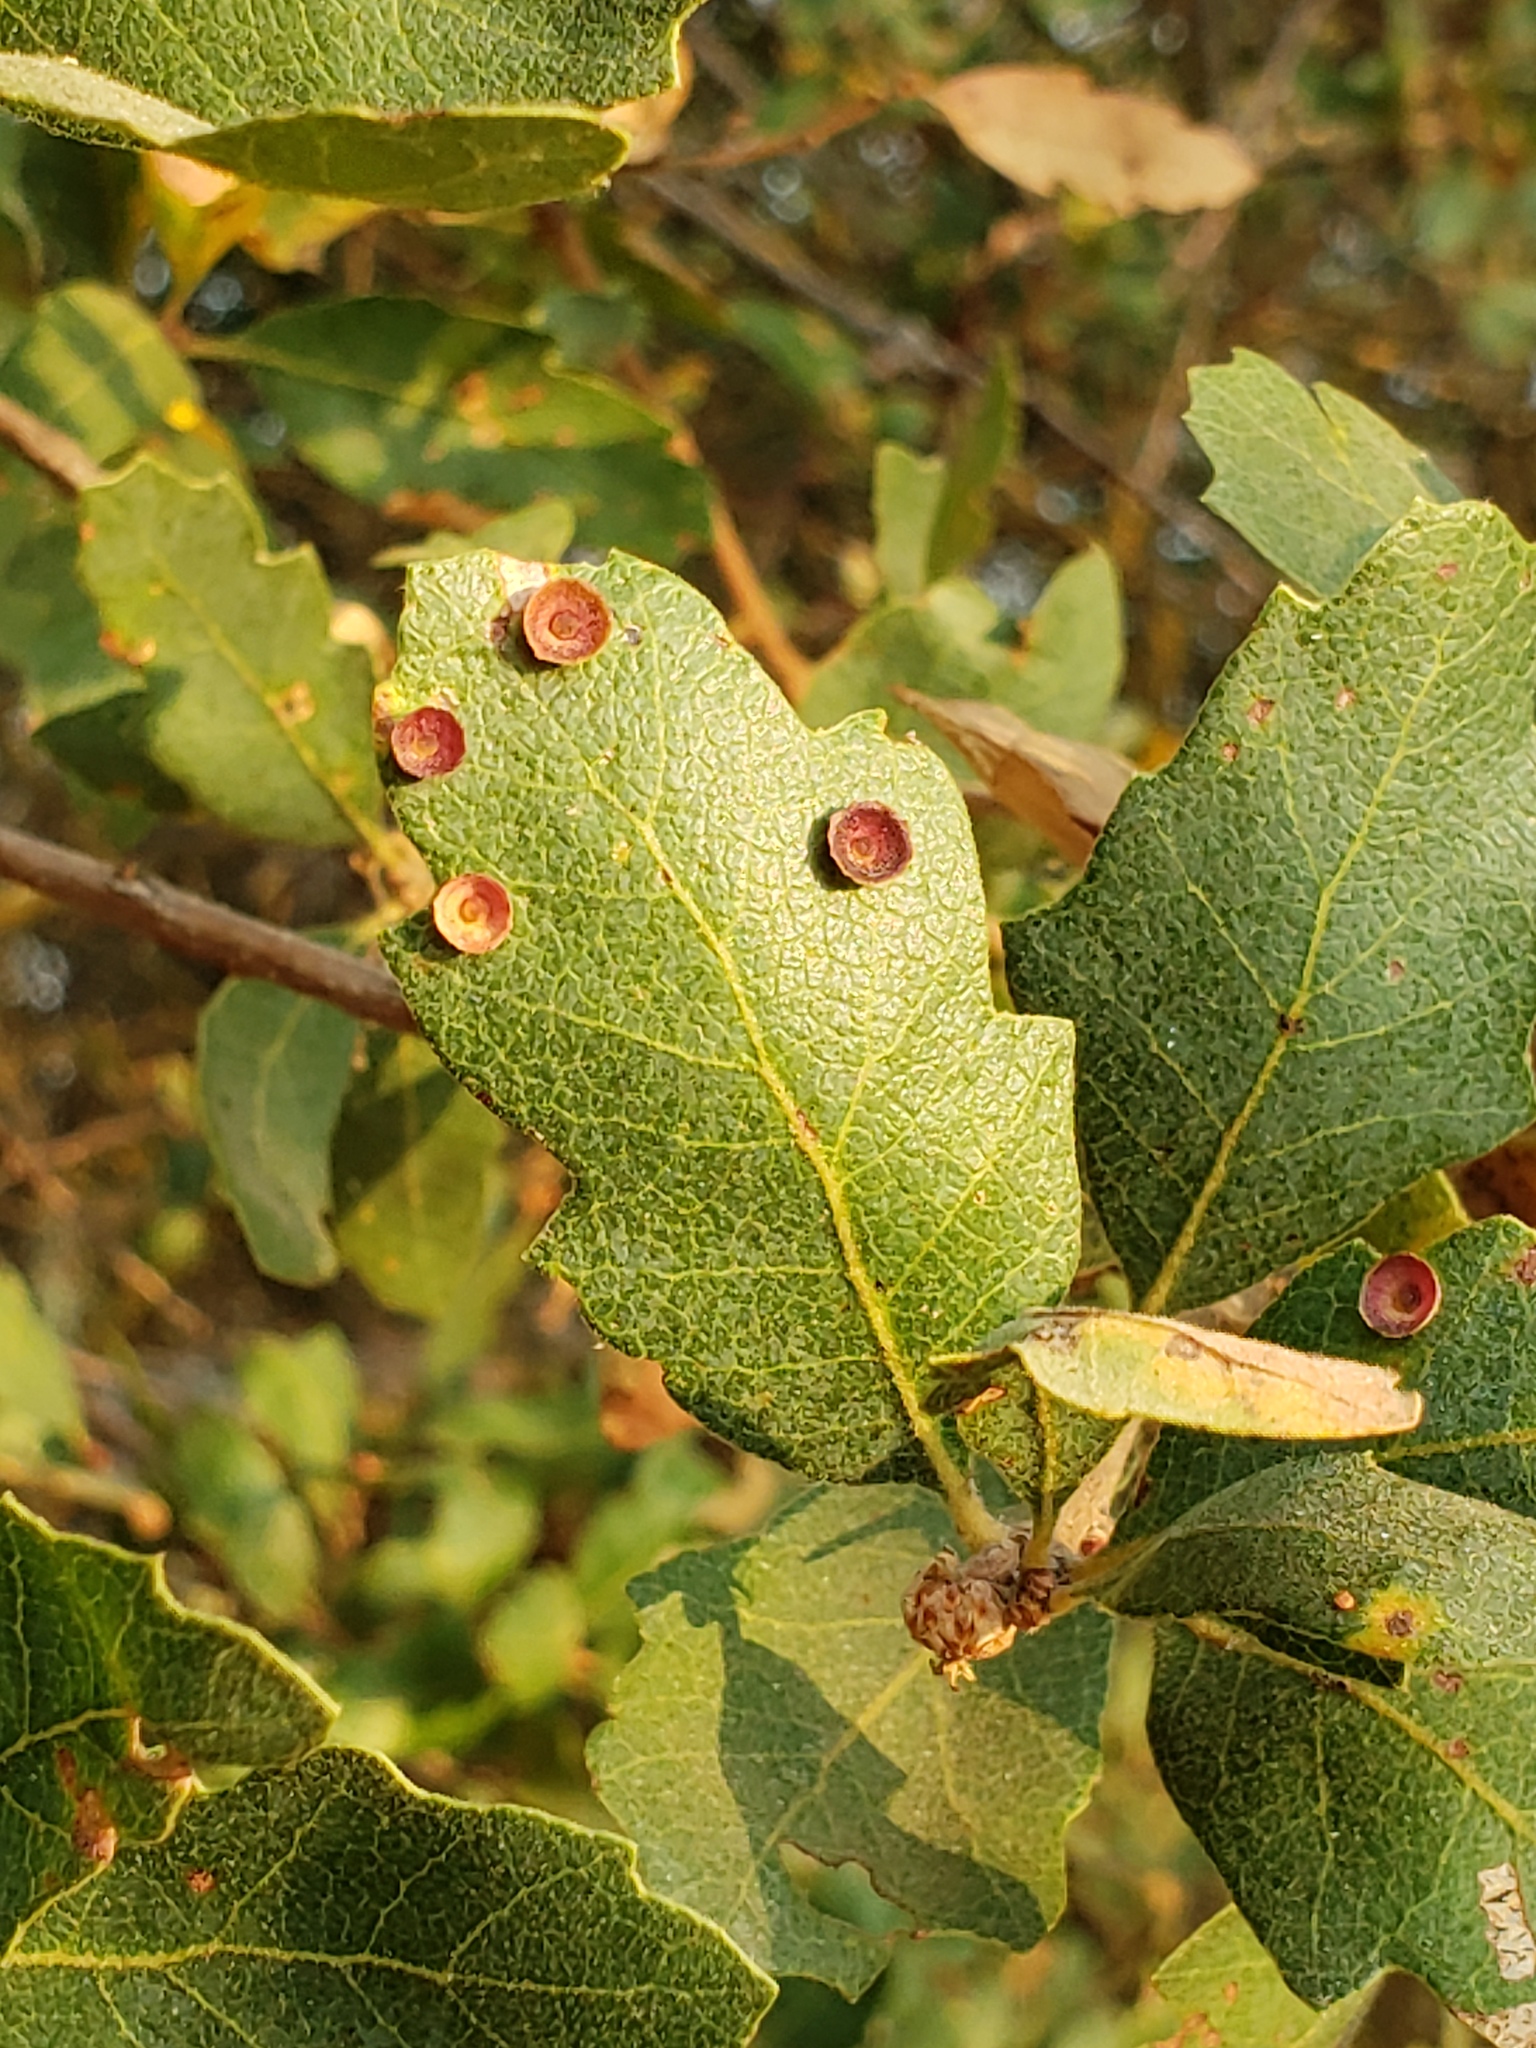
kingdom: Animalia
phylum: Arthropoda
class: Insecta
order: Hymenoptera
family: Cynipidae
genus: Andricus
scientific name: Andricus
